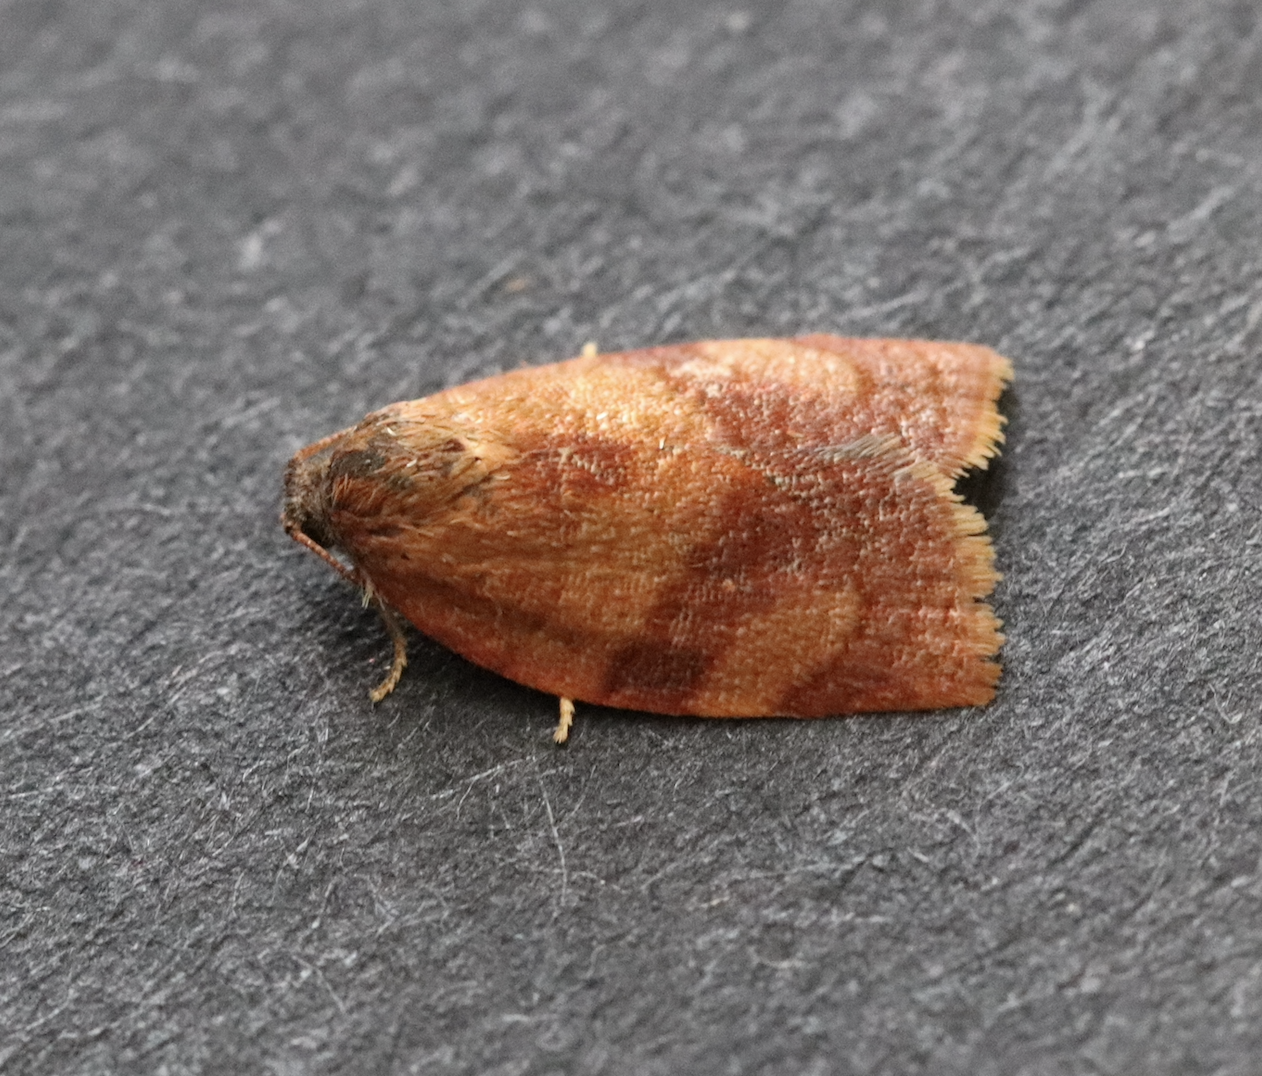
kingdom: Animalia
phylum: Arthropoda
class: Insecta
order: Lepidoptera
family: Tortricidae
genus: Cacoecimorpha
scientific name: Cacoecimorpha pronubana
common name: Carnation tortrix
